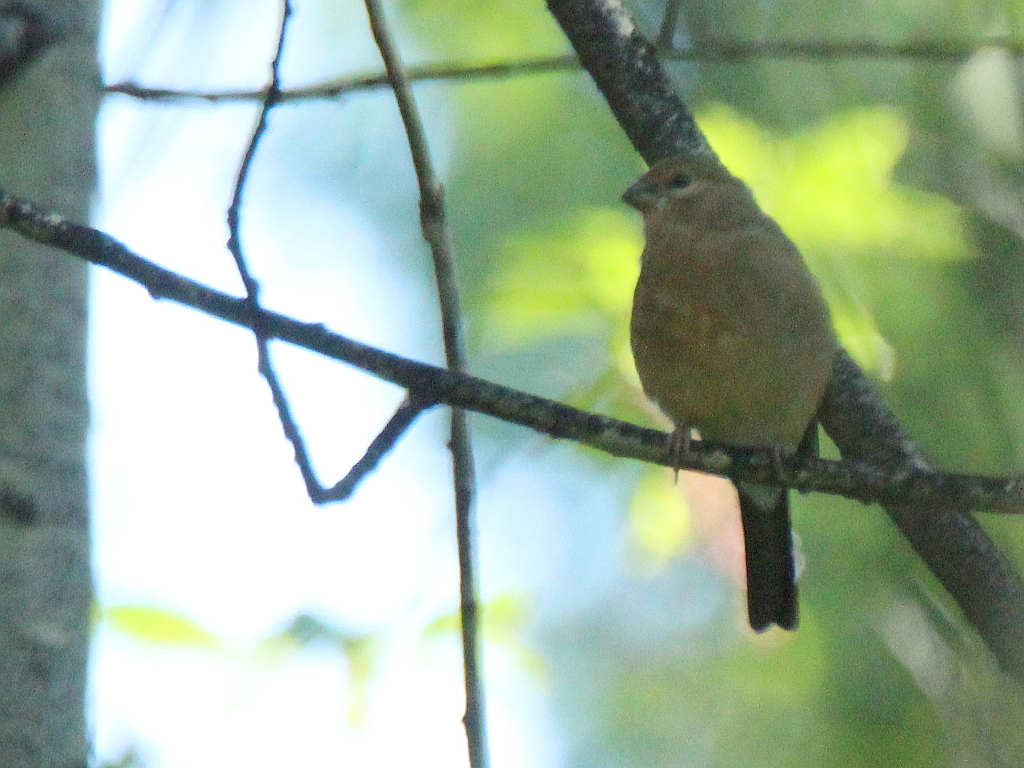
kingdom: Animalia
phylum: Chordata
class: Aves
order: Passeriformes
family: Fringillidae
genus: Pyrrhula
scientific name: Pyrrhula pyrrhula
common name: Eurasian bullfinch
